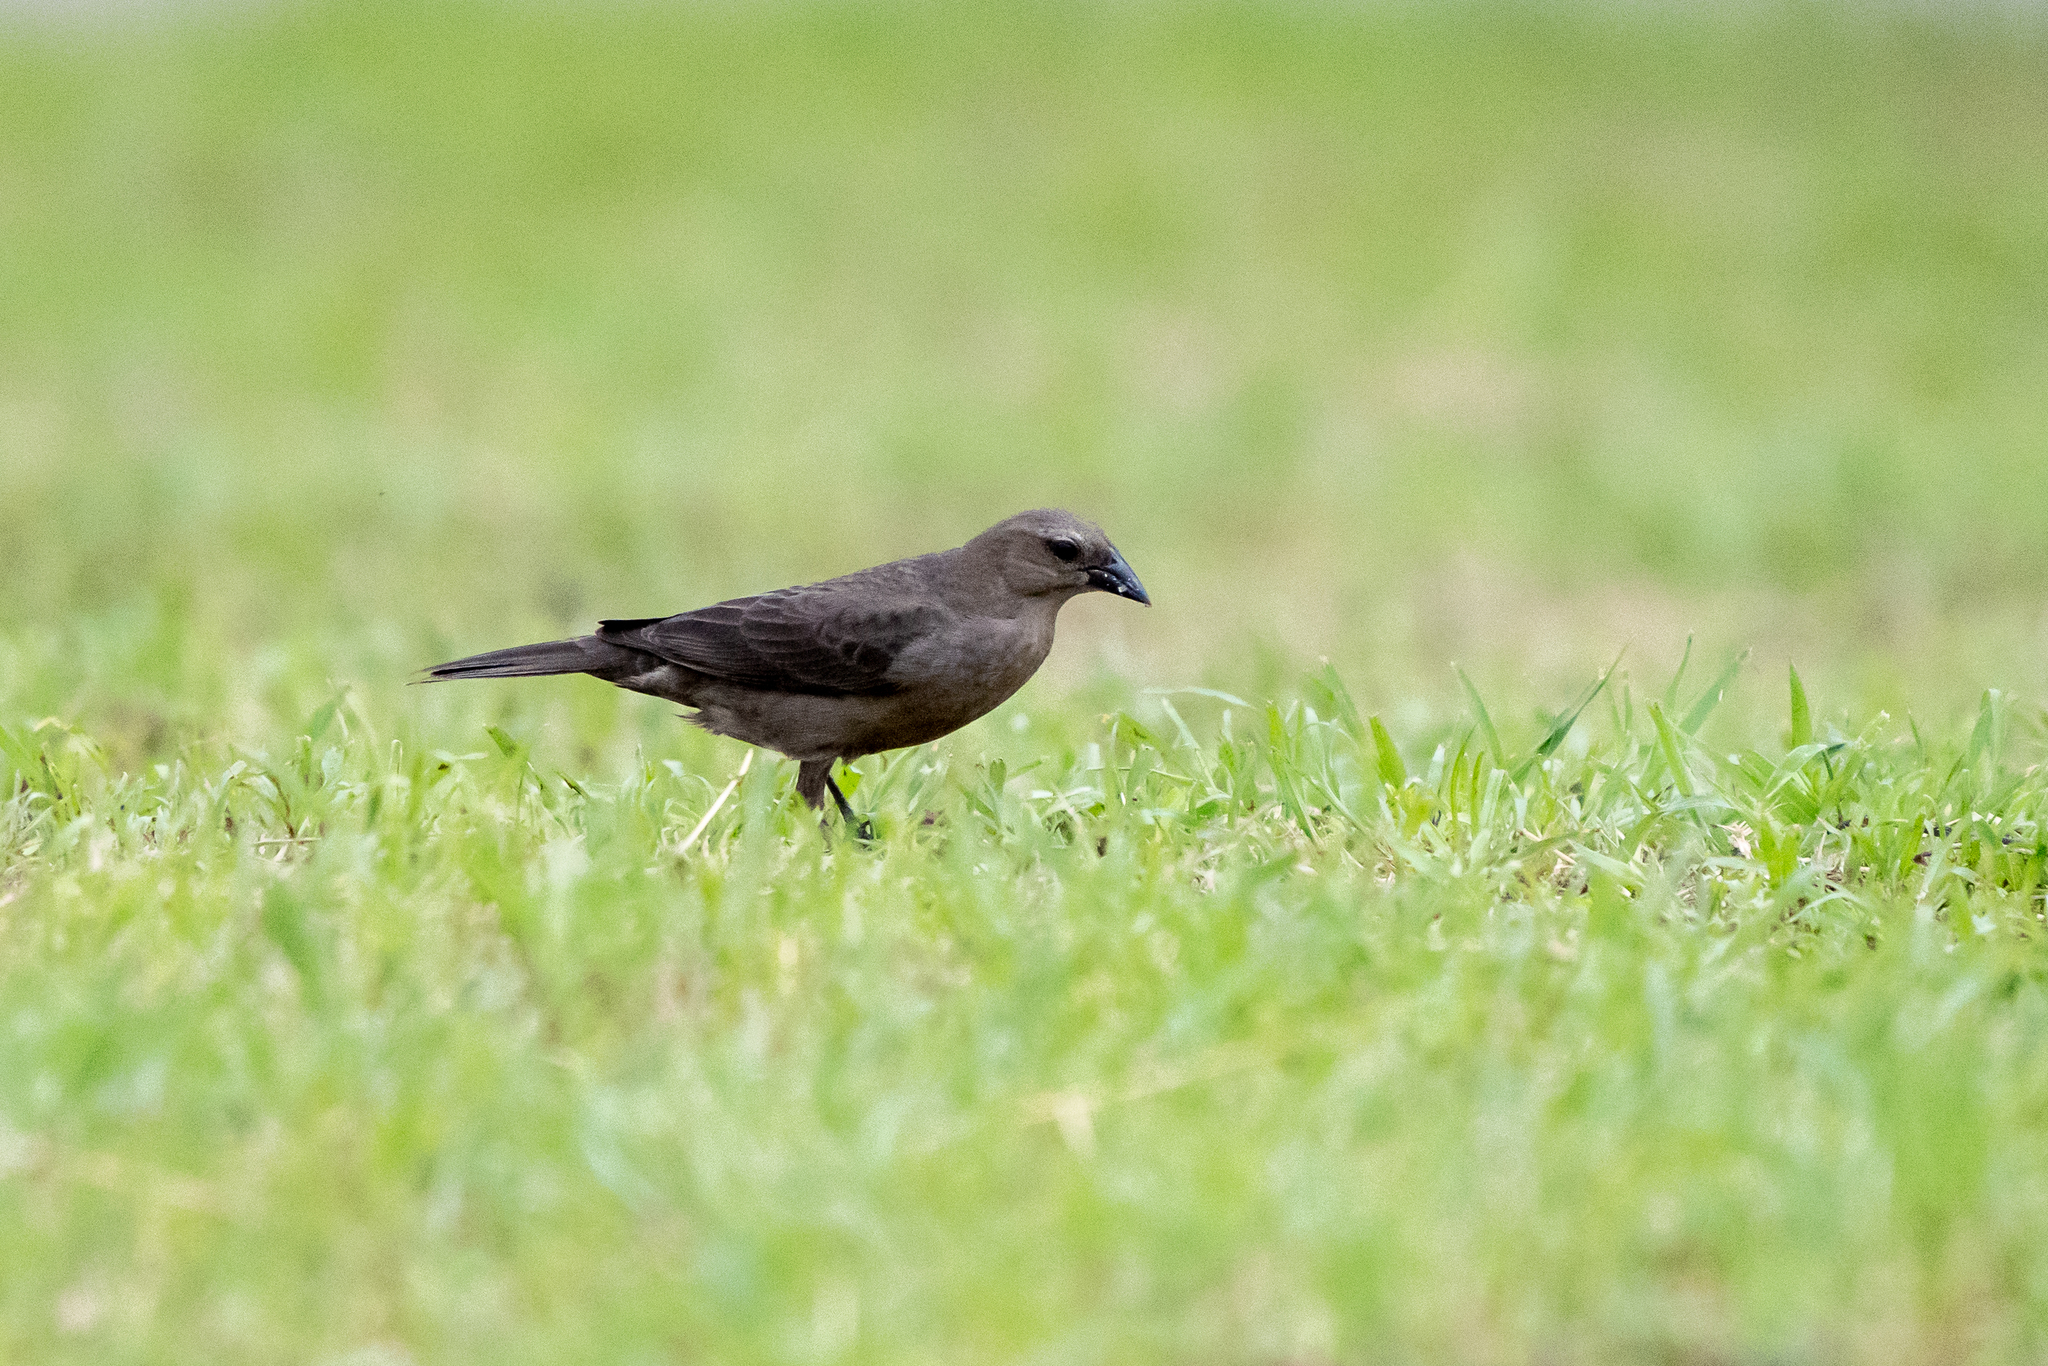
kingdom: Animalia
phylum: Chordata
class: Aves
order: Passeriformes
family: Icteridae
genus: Molothrus
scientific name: Molothrus bonariensis
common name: Shiny cowbird
